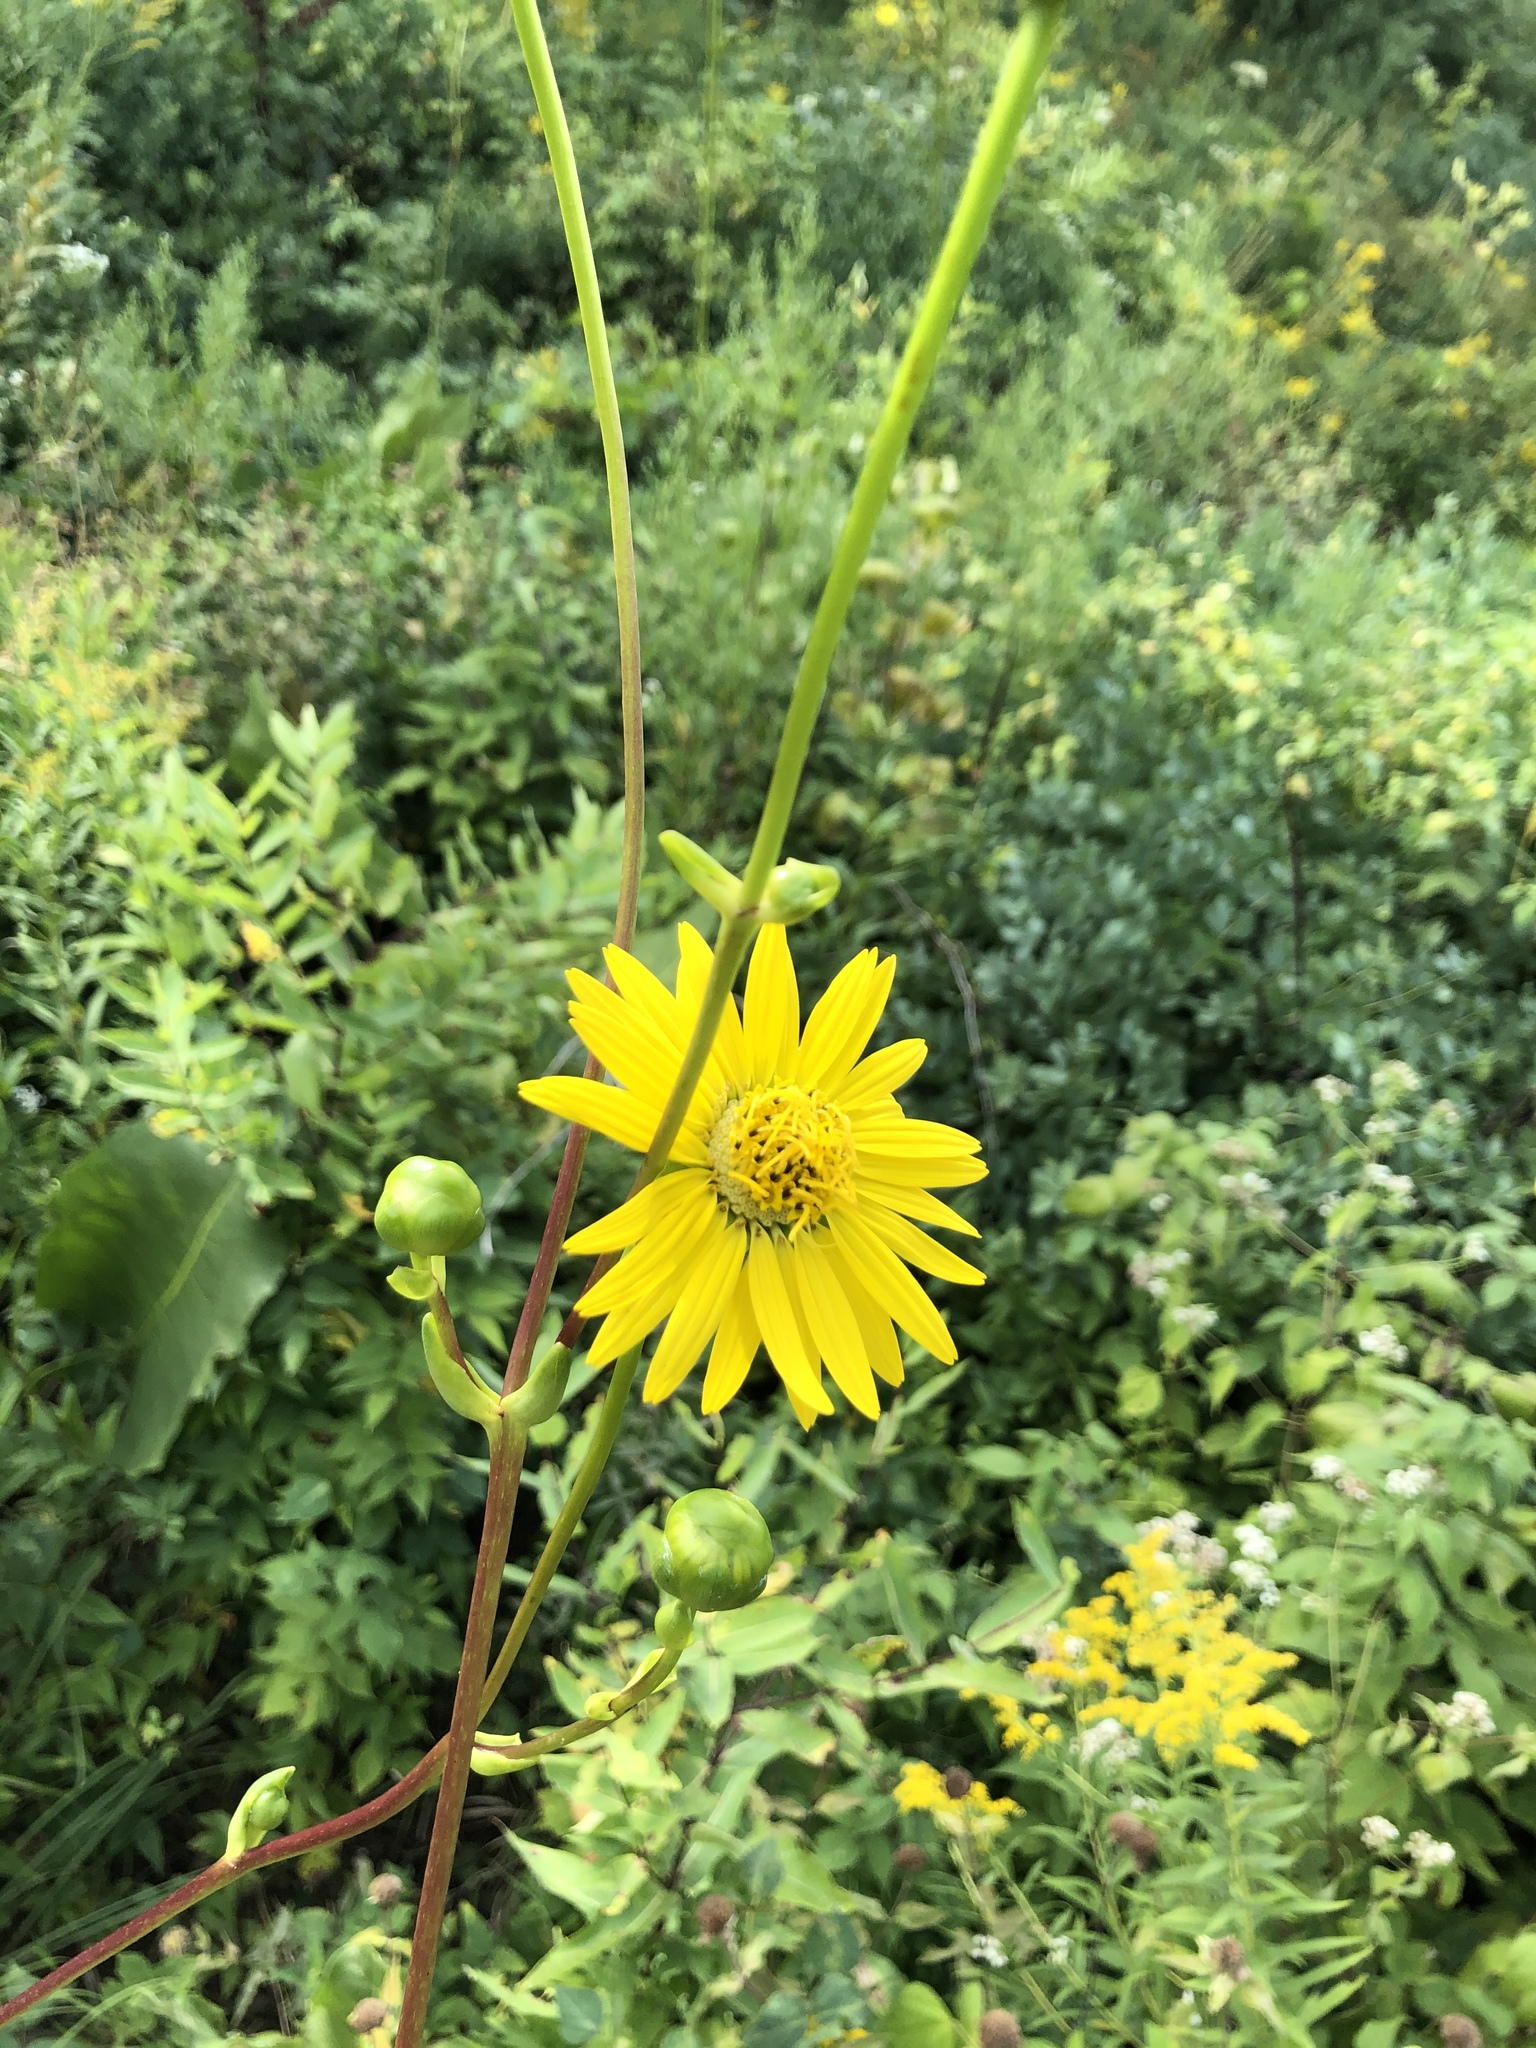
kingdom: Plantae
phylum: Tracheophyta
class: Magnoliopsida
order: Asterales
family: Asteraceae
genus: Silphium
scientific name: Silphium terebinthinaceum
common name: Basal-leaf rosinweed
